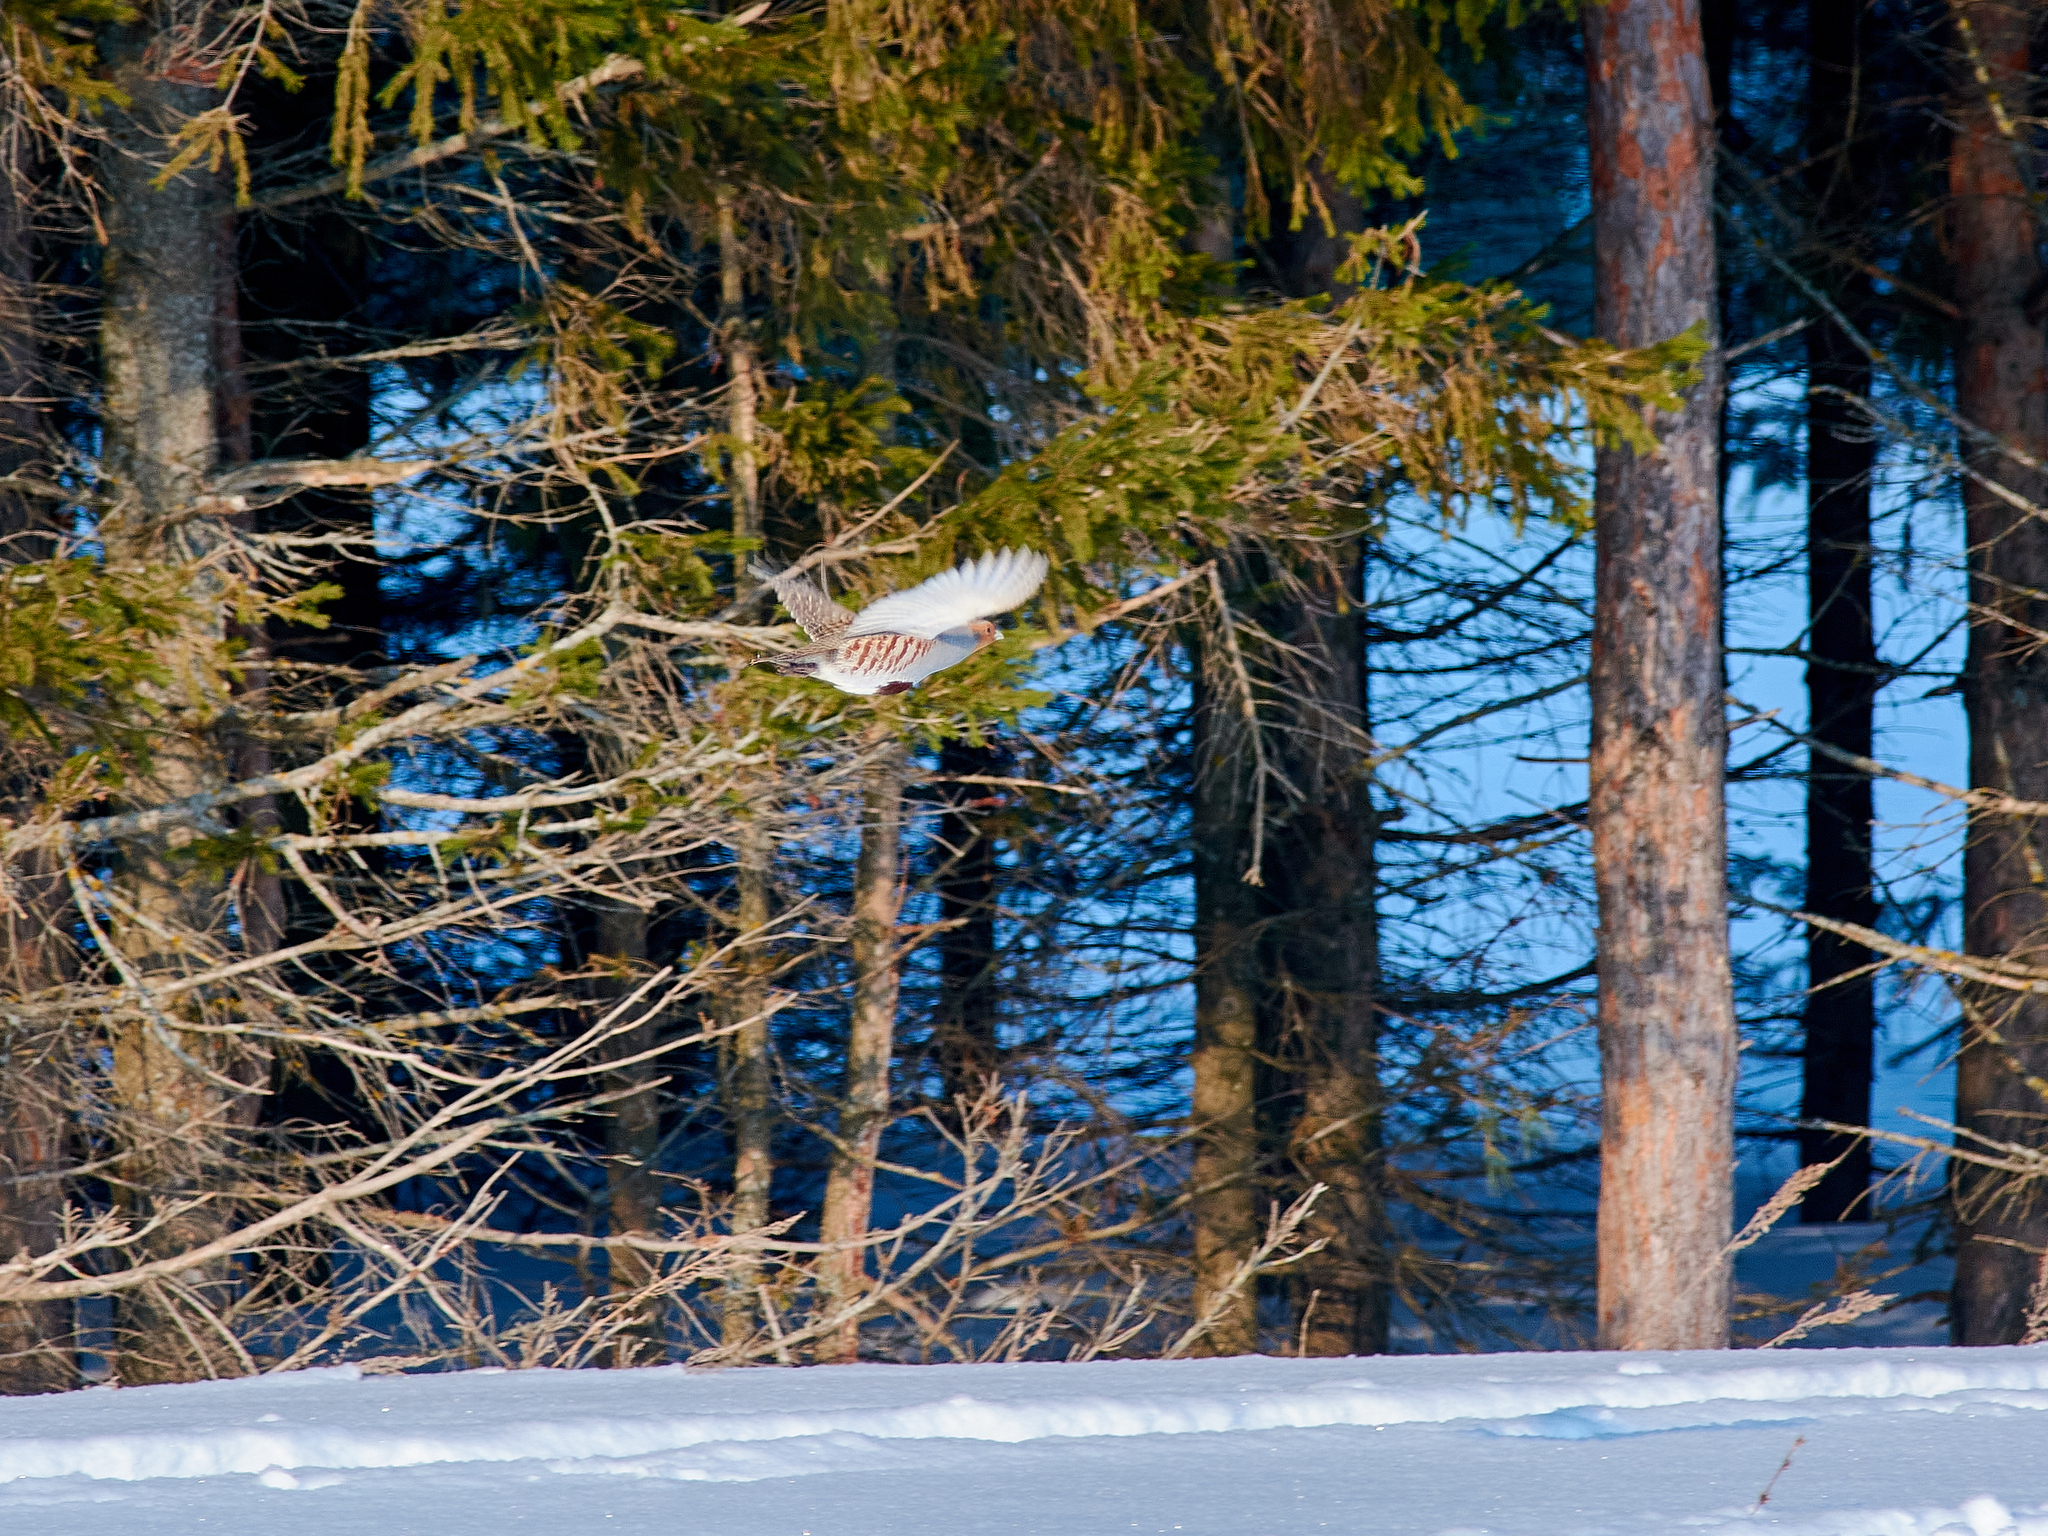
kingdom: Animalia
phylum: Chordata
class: Aves
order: Galliformes
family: Phasianidae
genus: Perdix
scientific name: Perdix perdix
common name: Grey partridge
